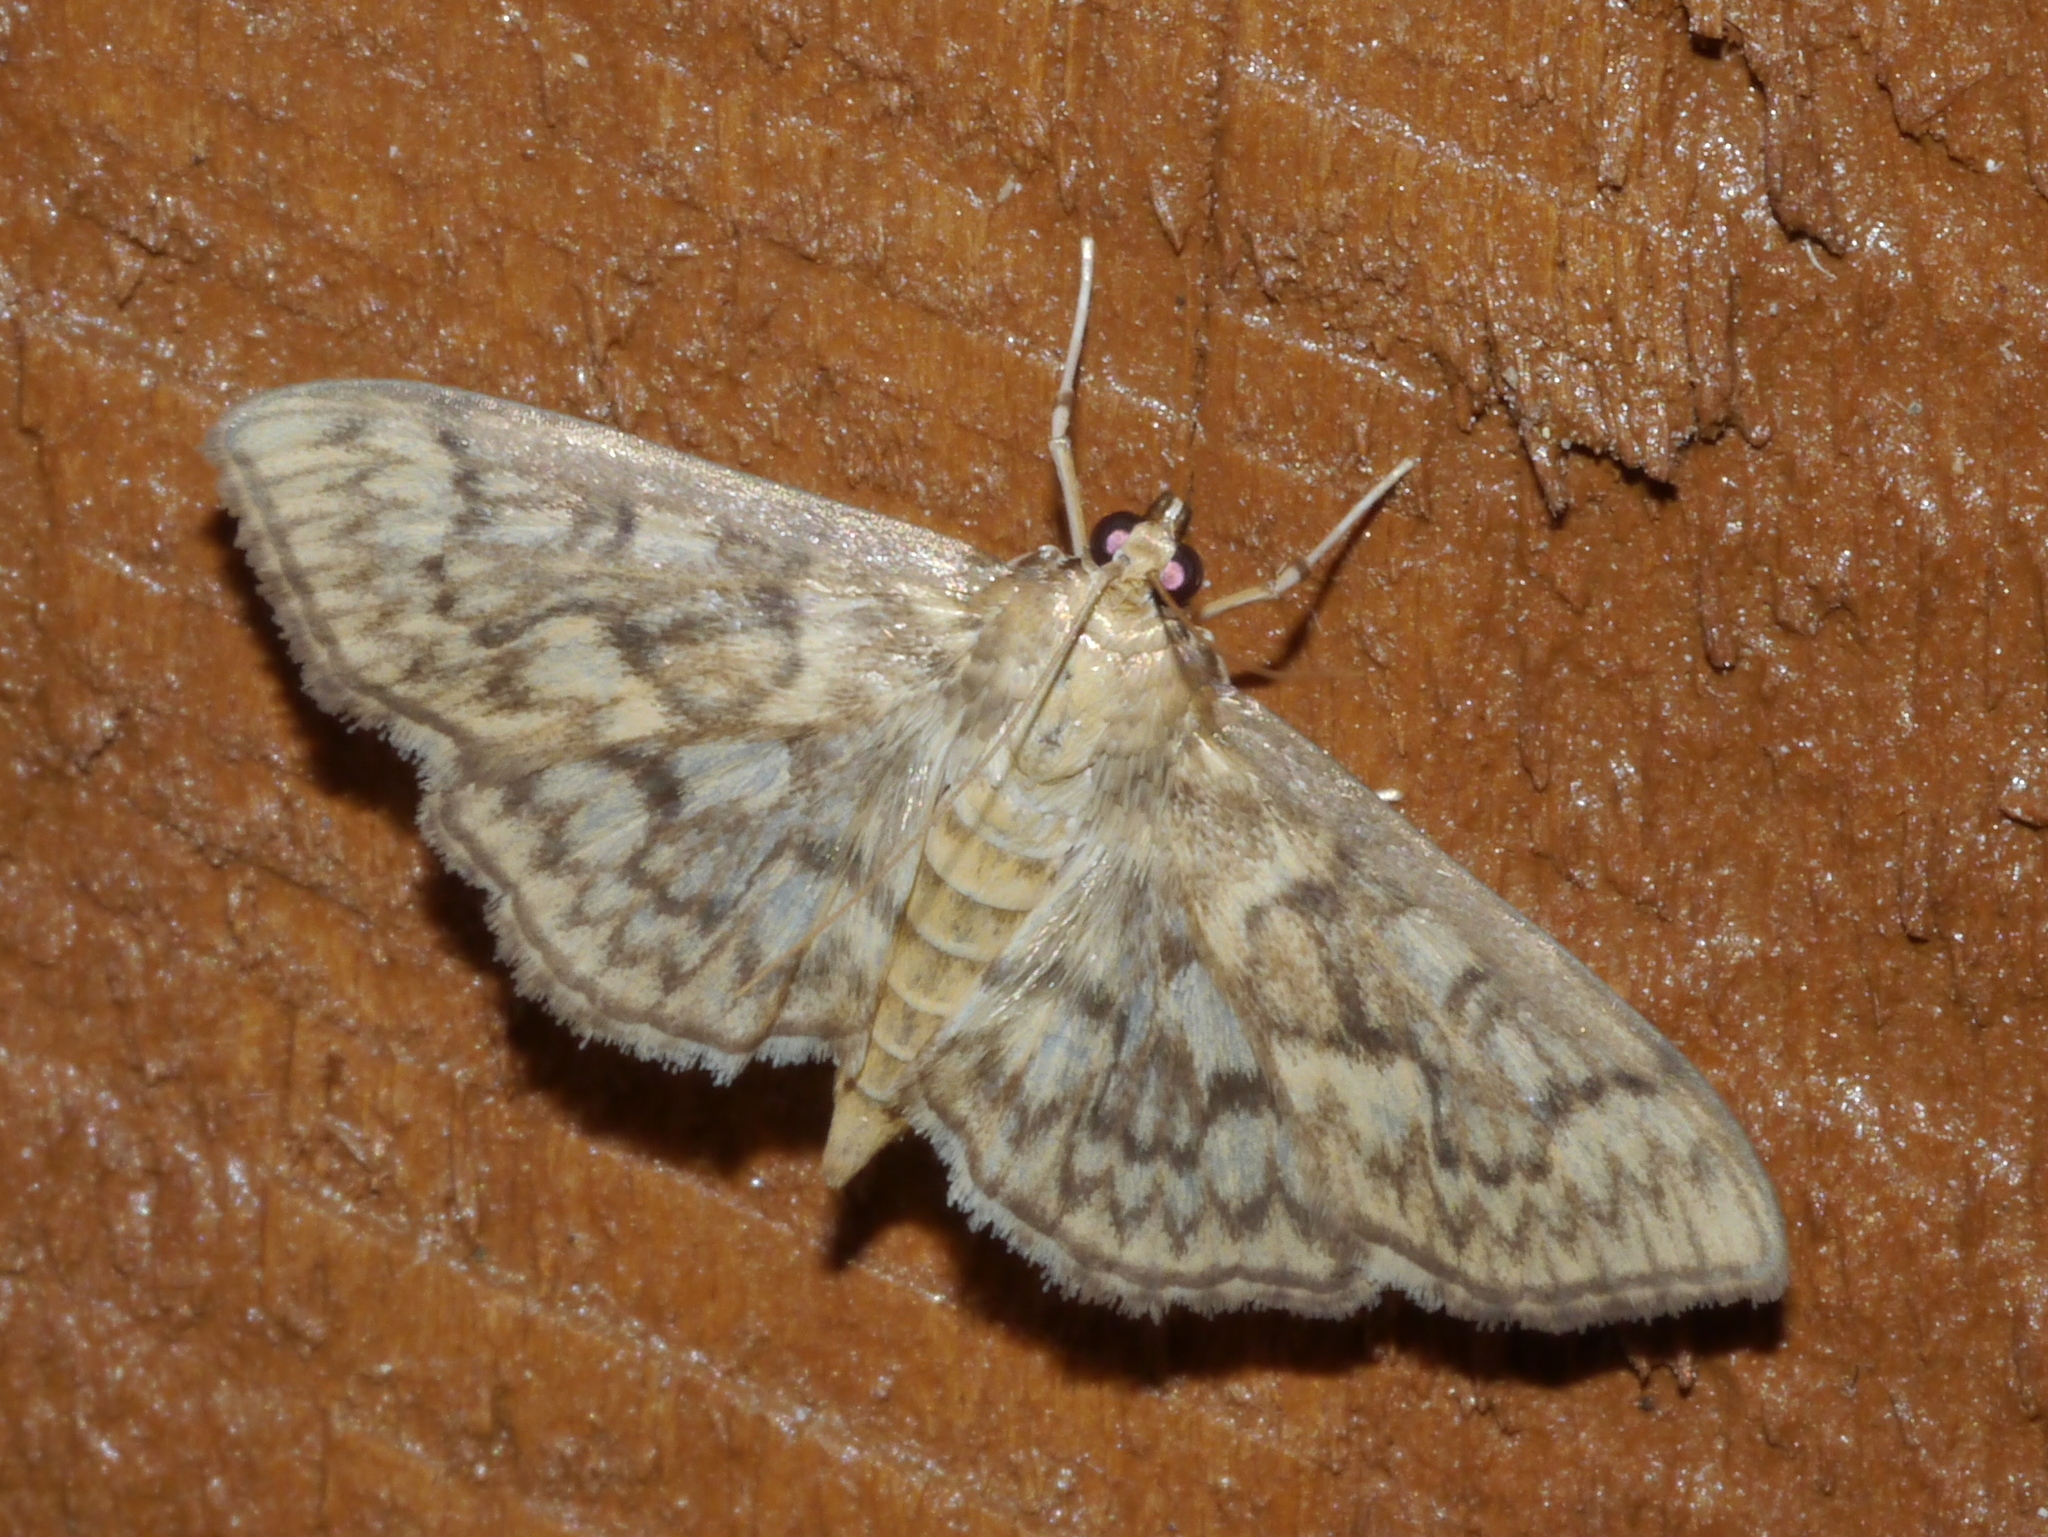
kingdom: Animalia
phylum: Arthropoda
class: Insecta
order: Lepidoptera
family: Crambidae
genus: Herpetogramma
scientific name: Herpetogramma pertextalis
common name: Bold-feathered grass moth
